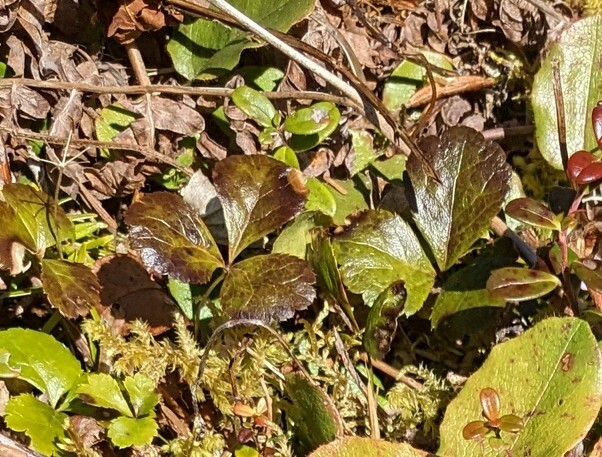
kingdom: Plantae
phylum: Tracheophyta
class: Magnoliopsida
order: Ranunculales
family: Ranunculaceae
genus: Coptis
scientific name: Coptis trifolia
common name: Canker-root
